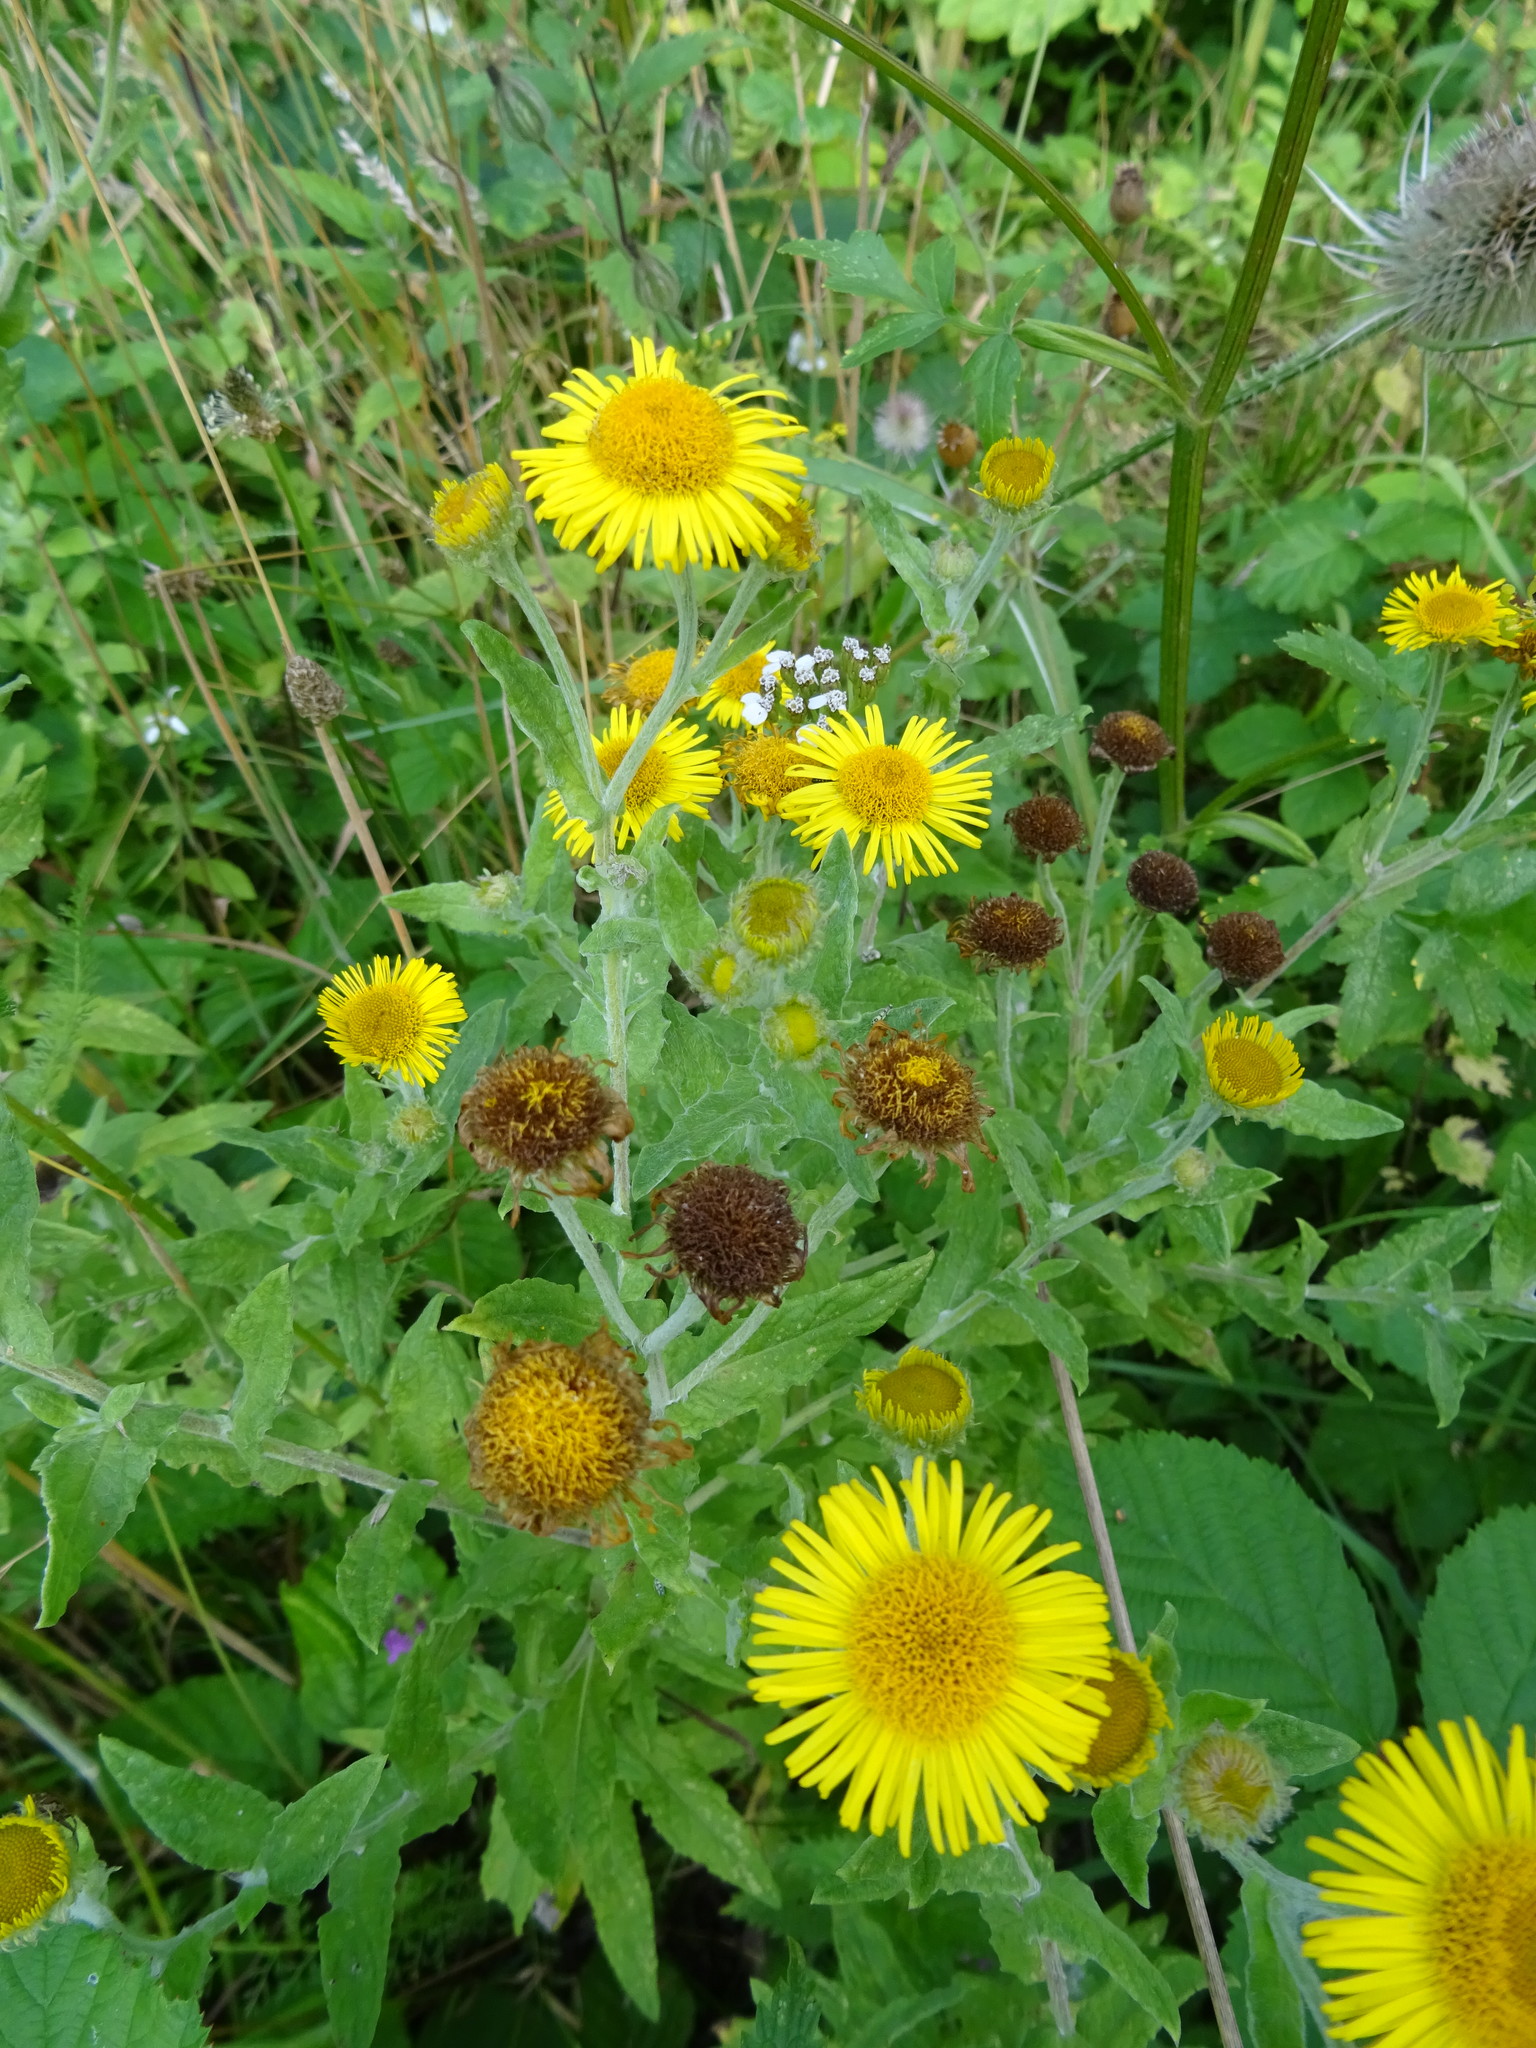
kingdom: Plantae
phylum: Tracheophyta
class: Magnoliopsida
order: Asterales
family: Asteraceae
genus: Pulicaria
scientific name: Pulicaria dysenterica
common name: Common fleabane
